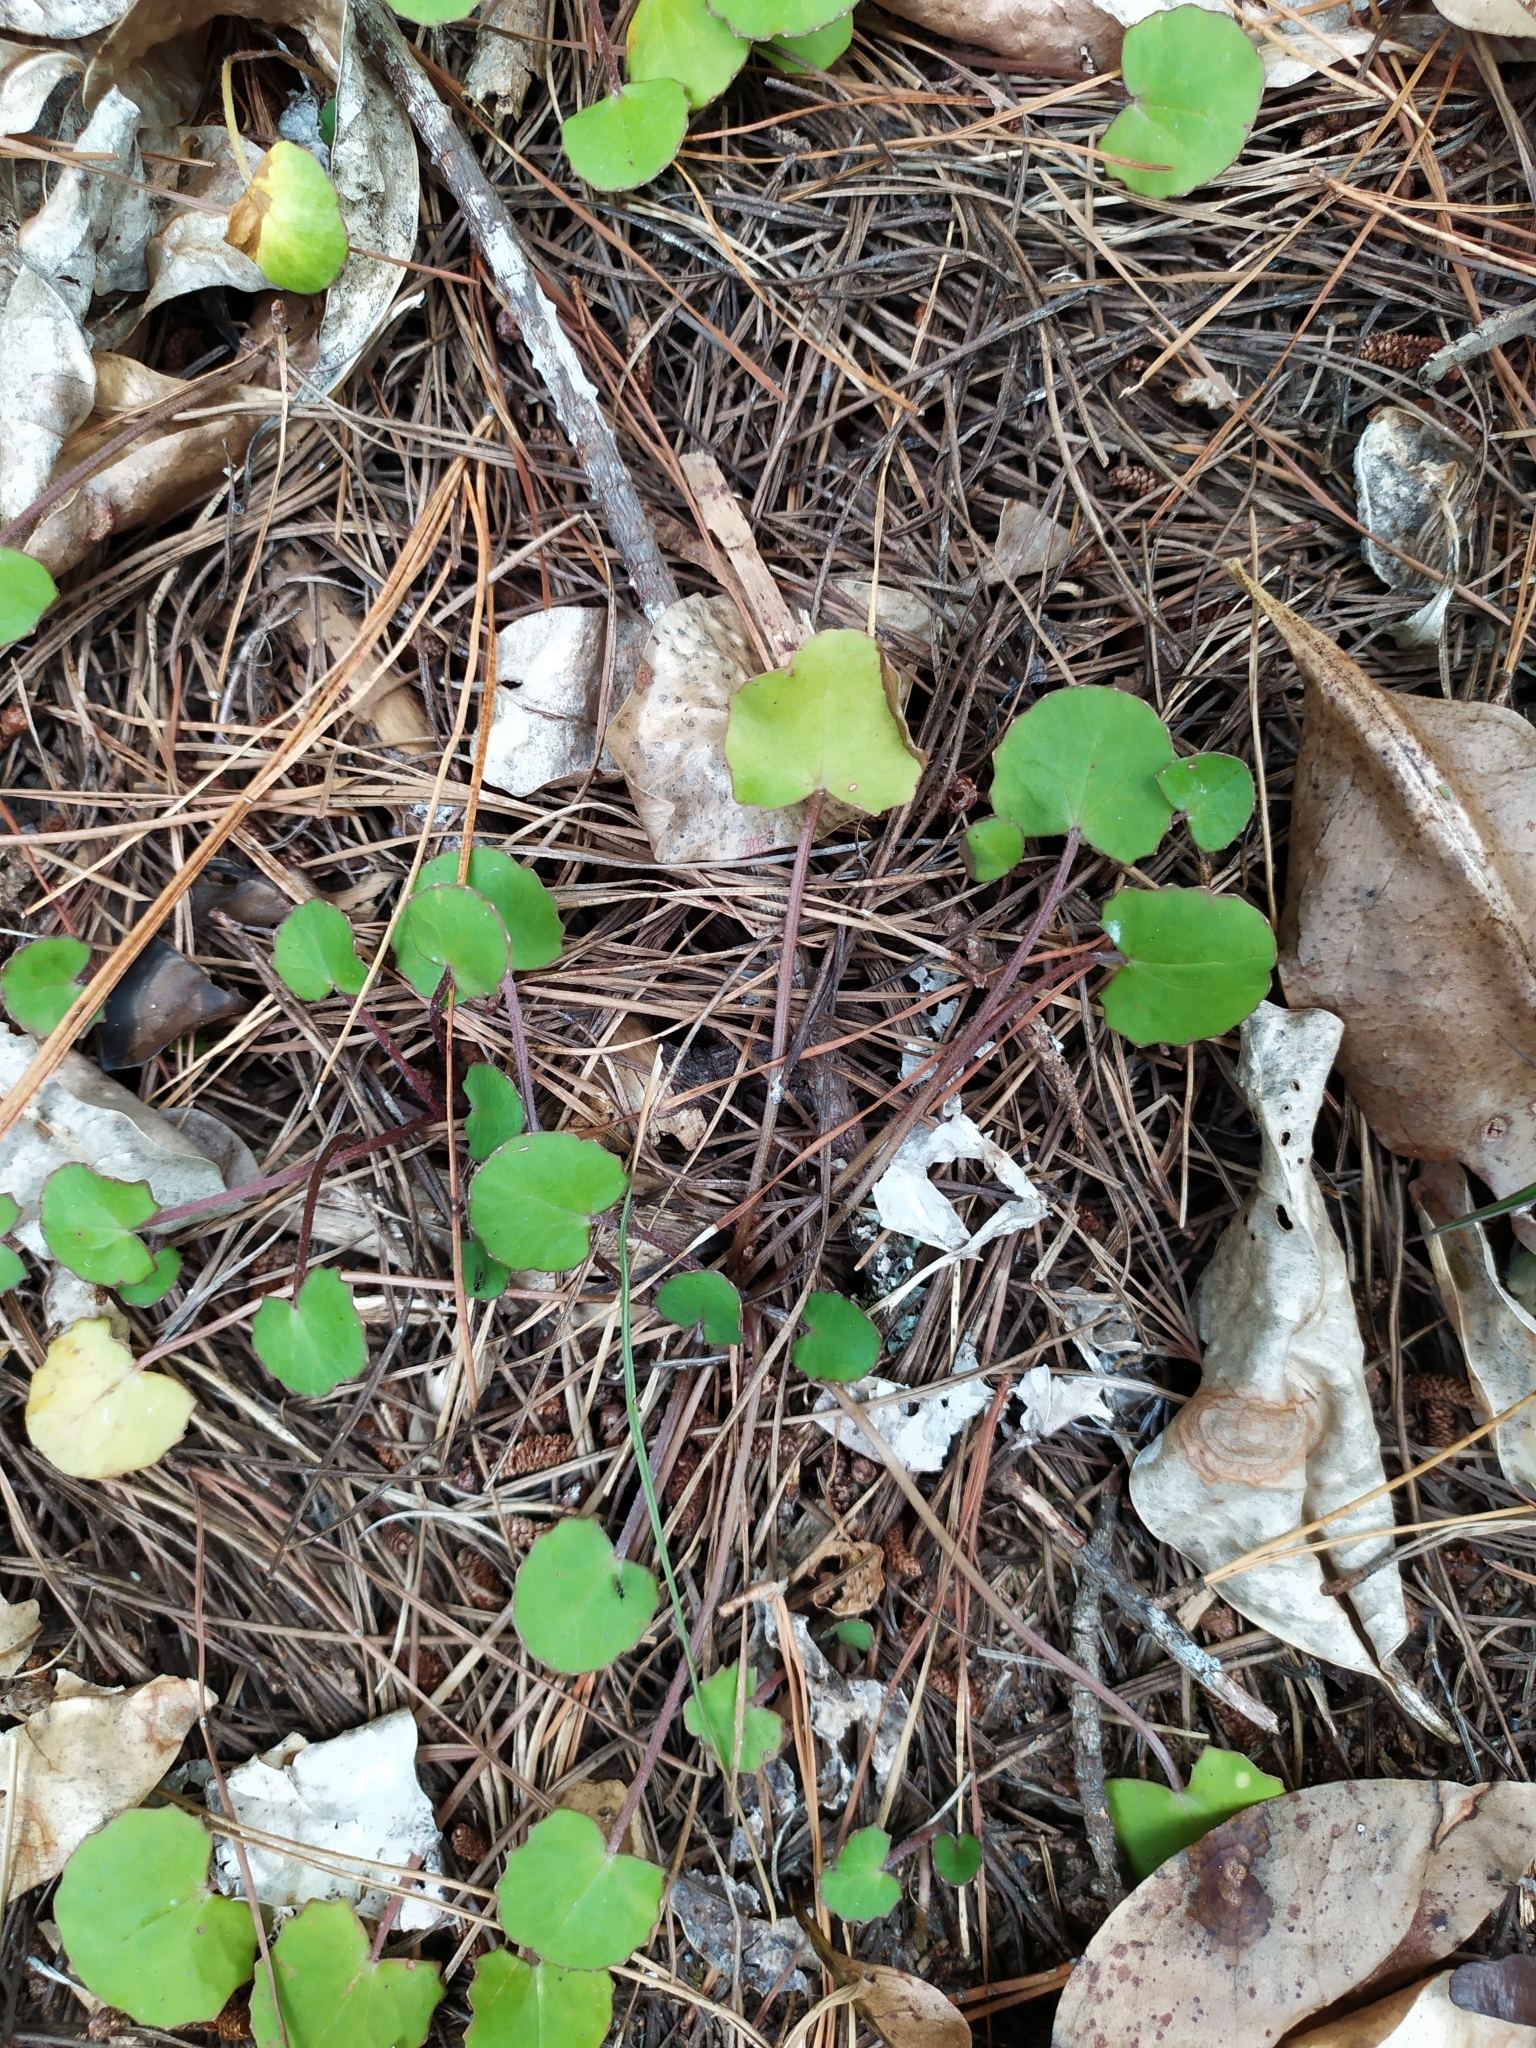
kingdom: Plantae
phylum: Tracheophyta
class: Magnoliopsida
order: Apiales
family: Apiaceae
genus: Centella
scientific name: Centella uniflora
